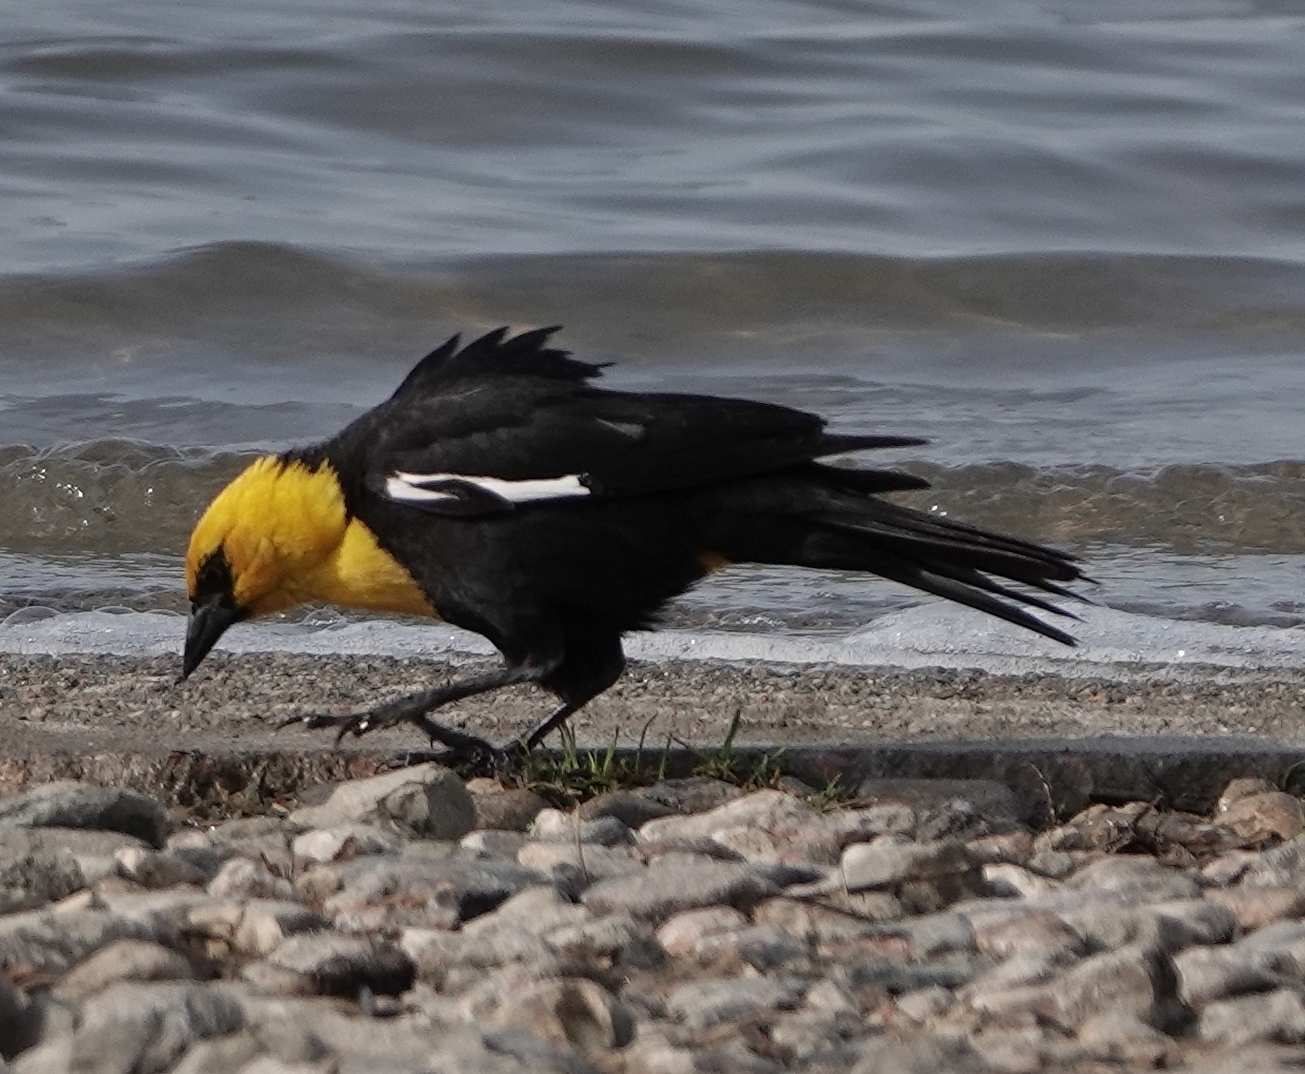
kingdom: Animalia
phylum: Chordata
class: Aves
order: Passeriformes
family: Icteridae
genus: Xanthocephalus
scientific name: Xanthocephalus xanthocephalus
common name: Yellow-headed blackbird
